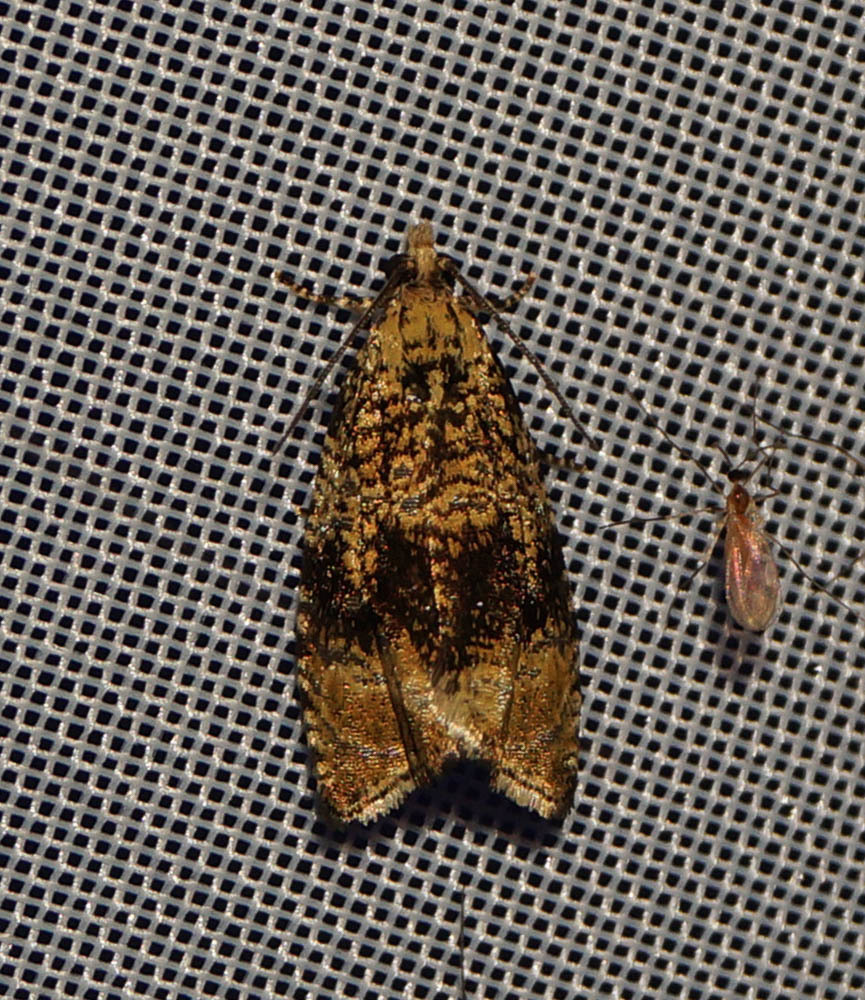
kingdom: Animalia
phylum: Arthropoda
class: Insecta
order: Lepidoptera
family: Tortricidae
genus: Syricoris
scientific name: Syricoris lacunana
